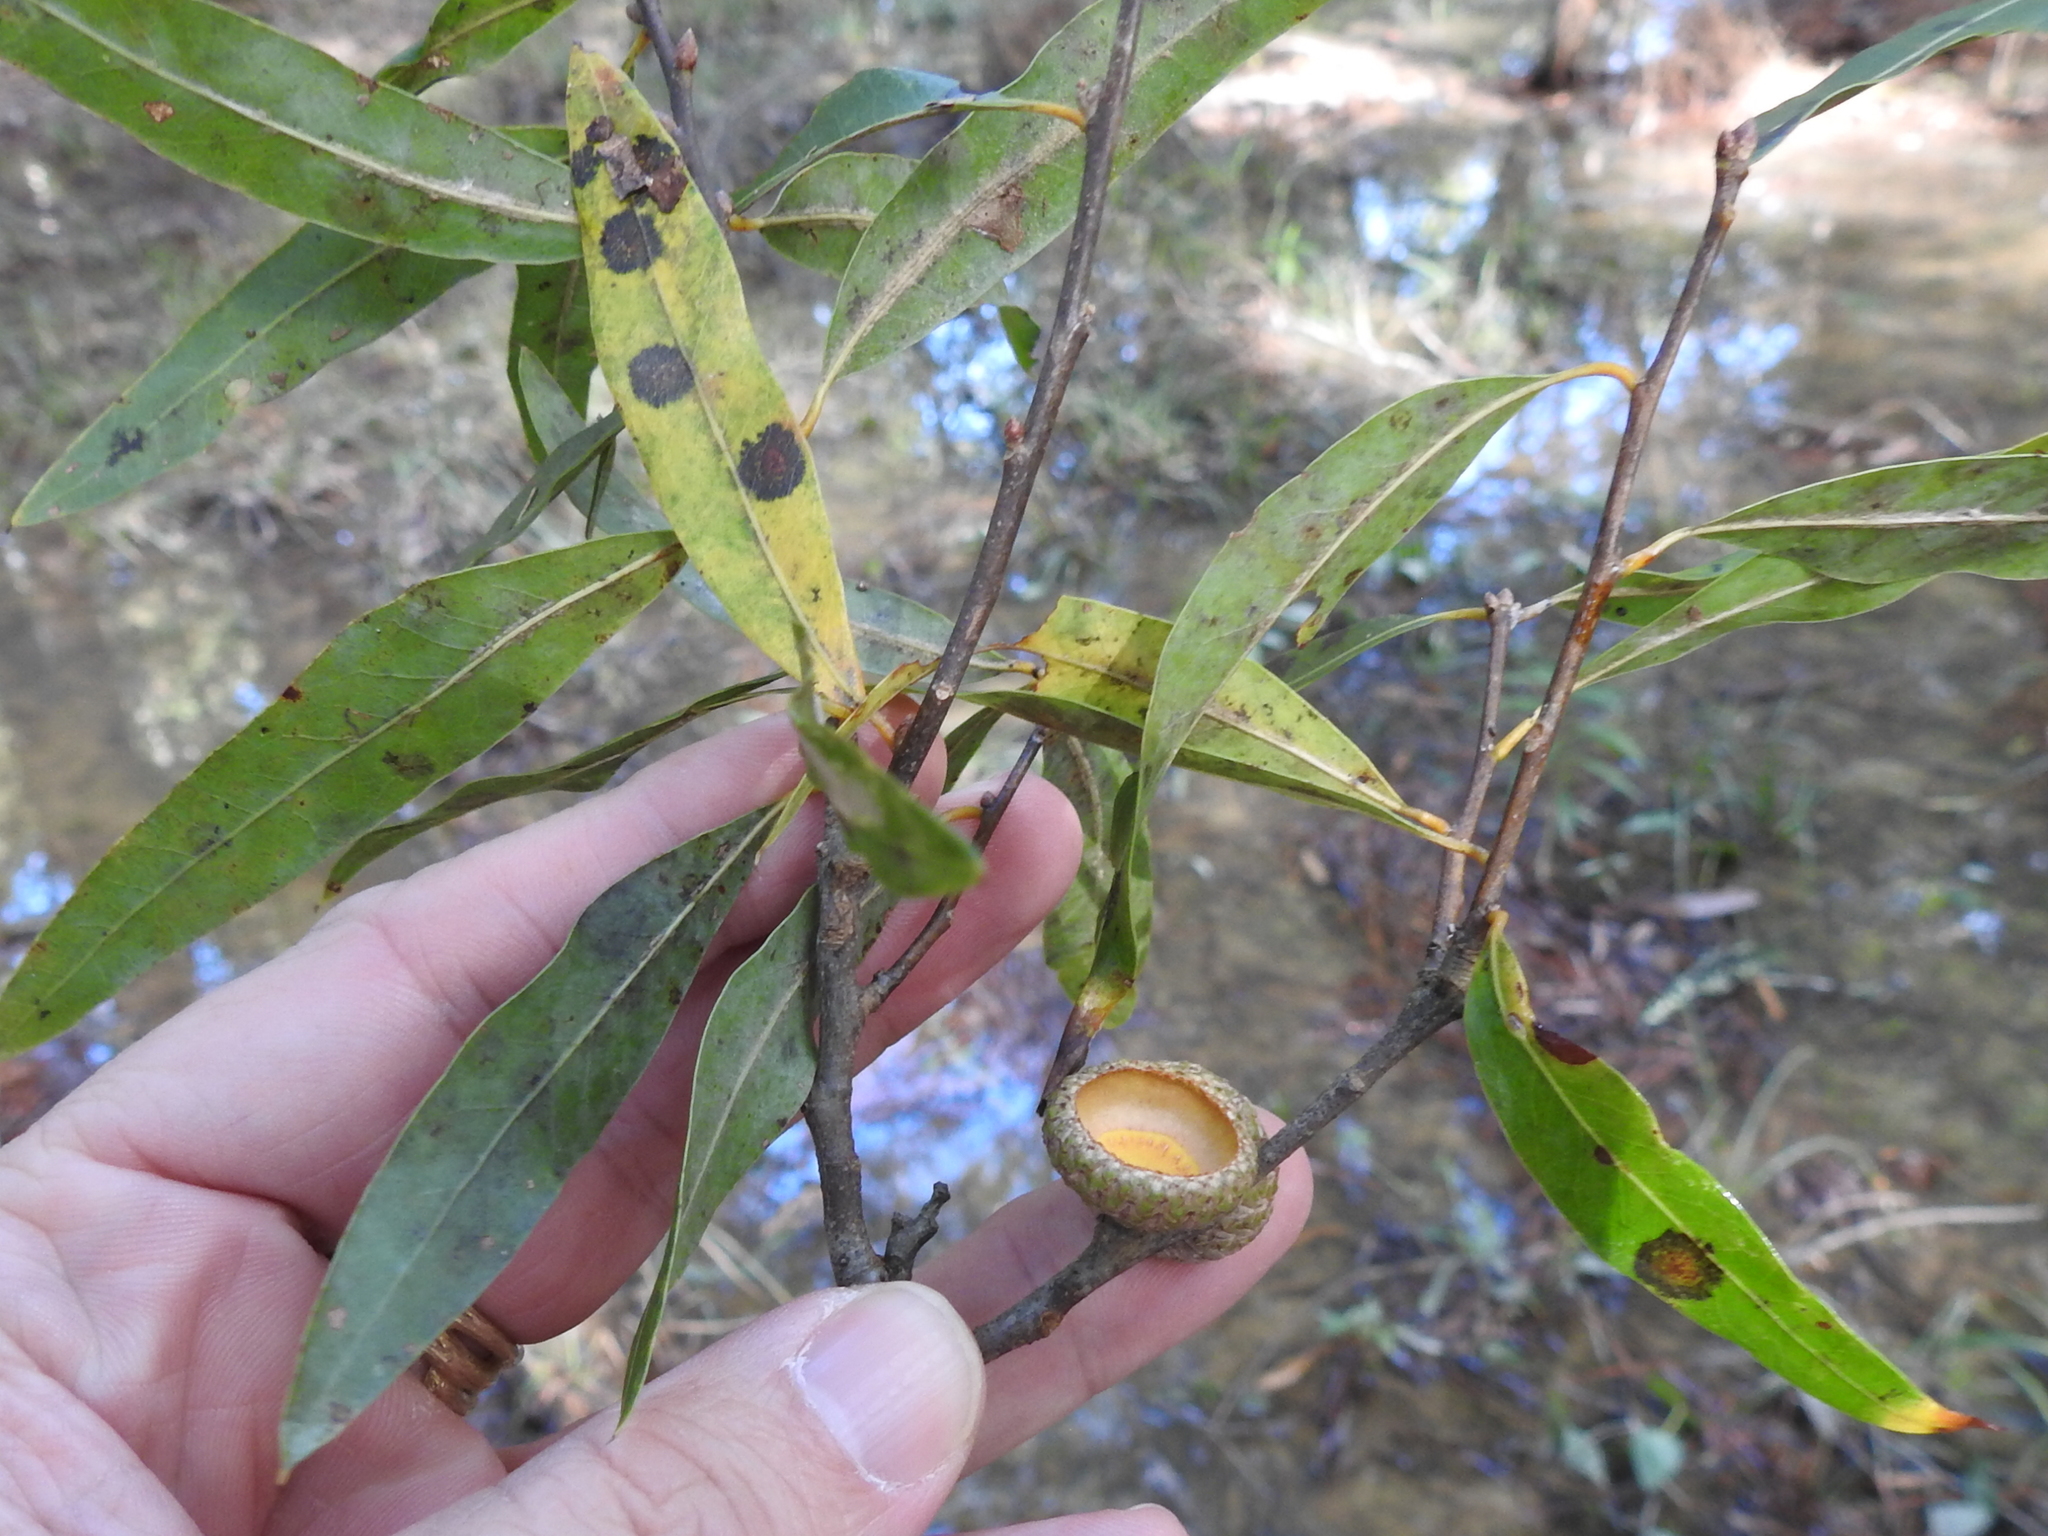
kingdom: Plantae
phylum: Tracheophyta
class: Magnoliopsida
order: Fagales
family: Fagaceae
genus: Quercus
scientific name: Quercus phellos
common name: Willow oak
